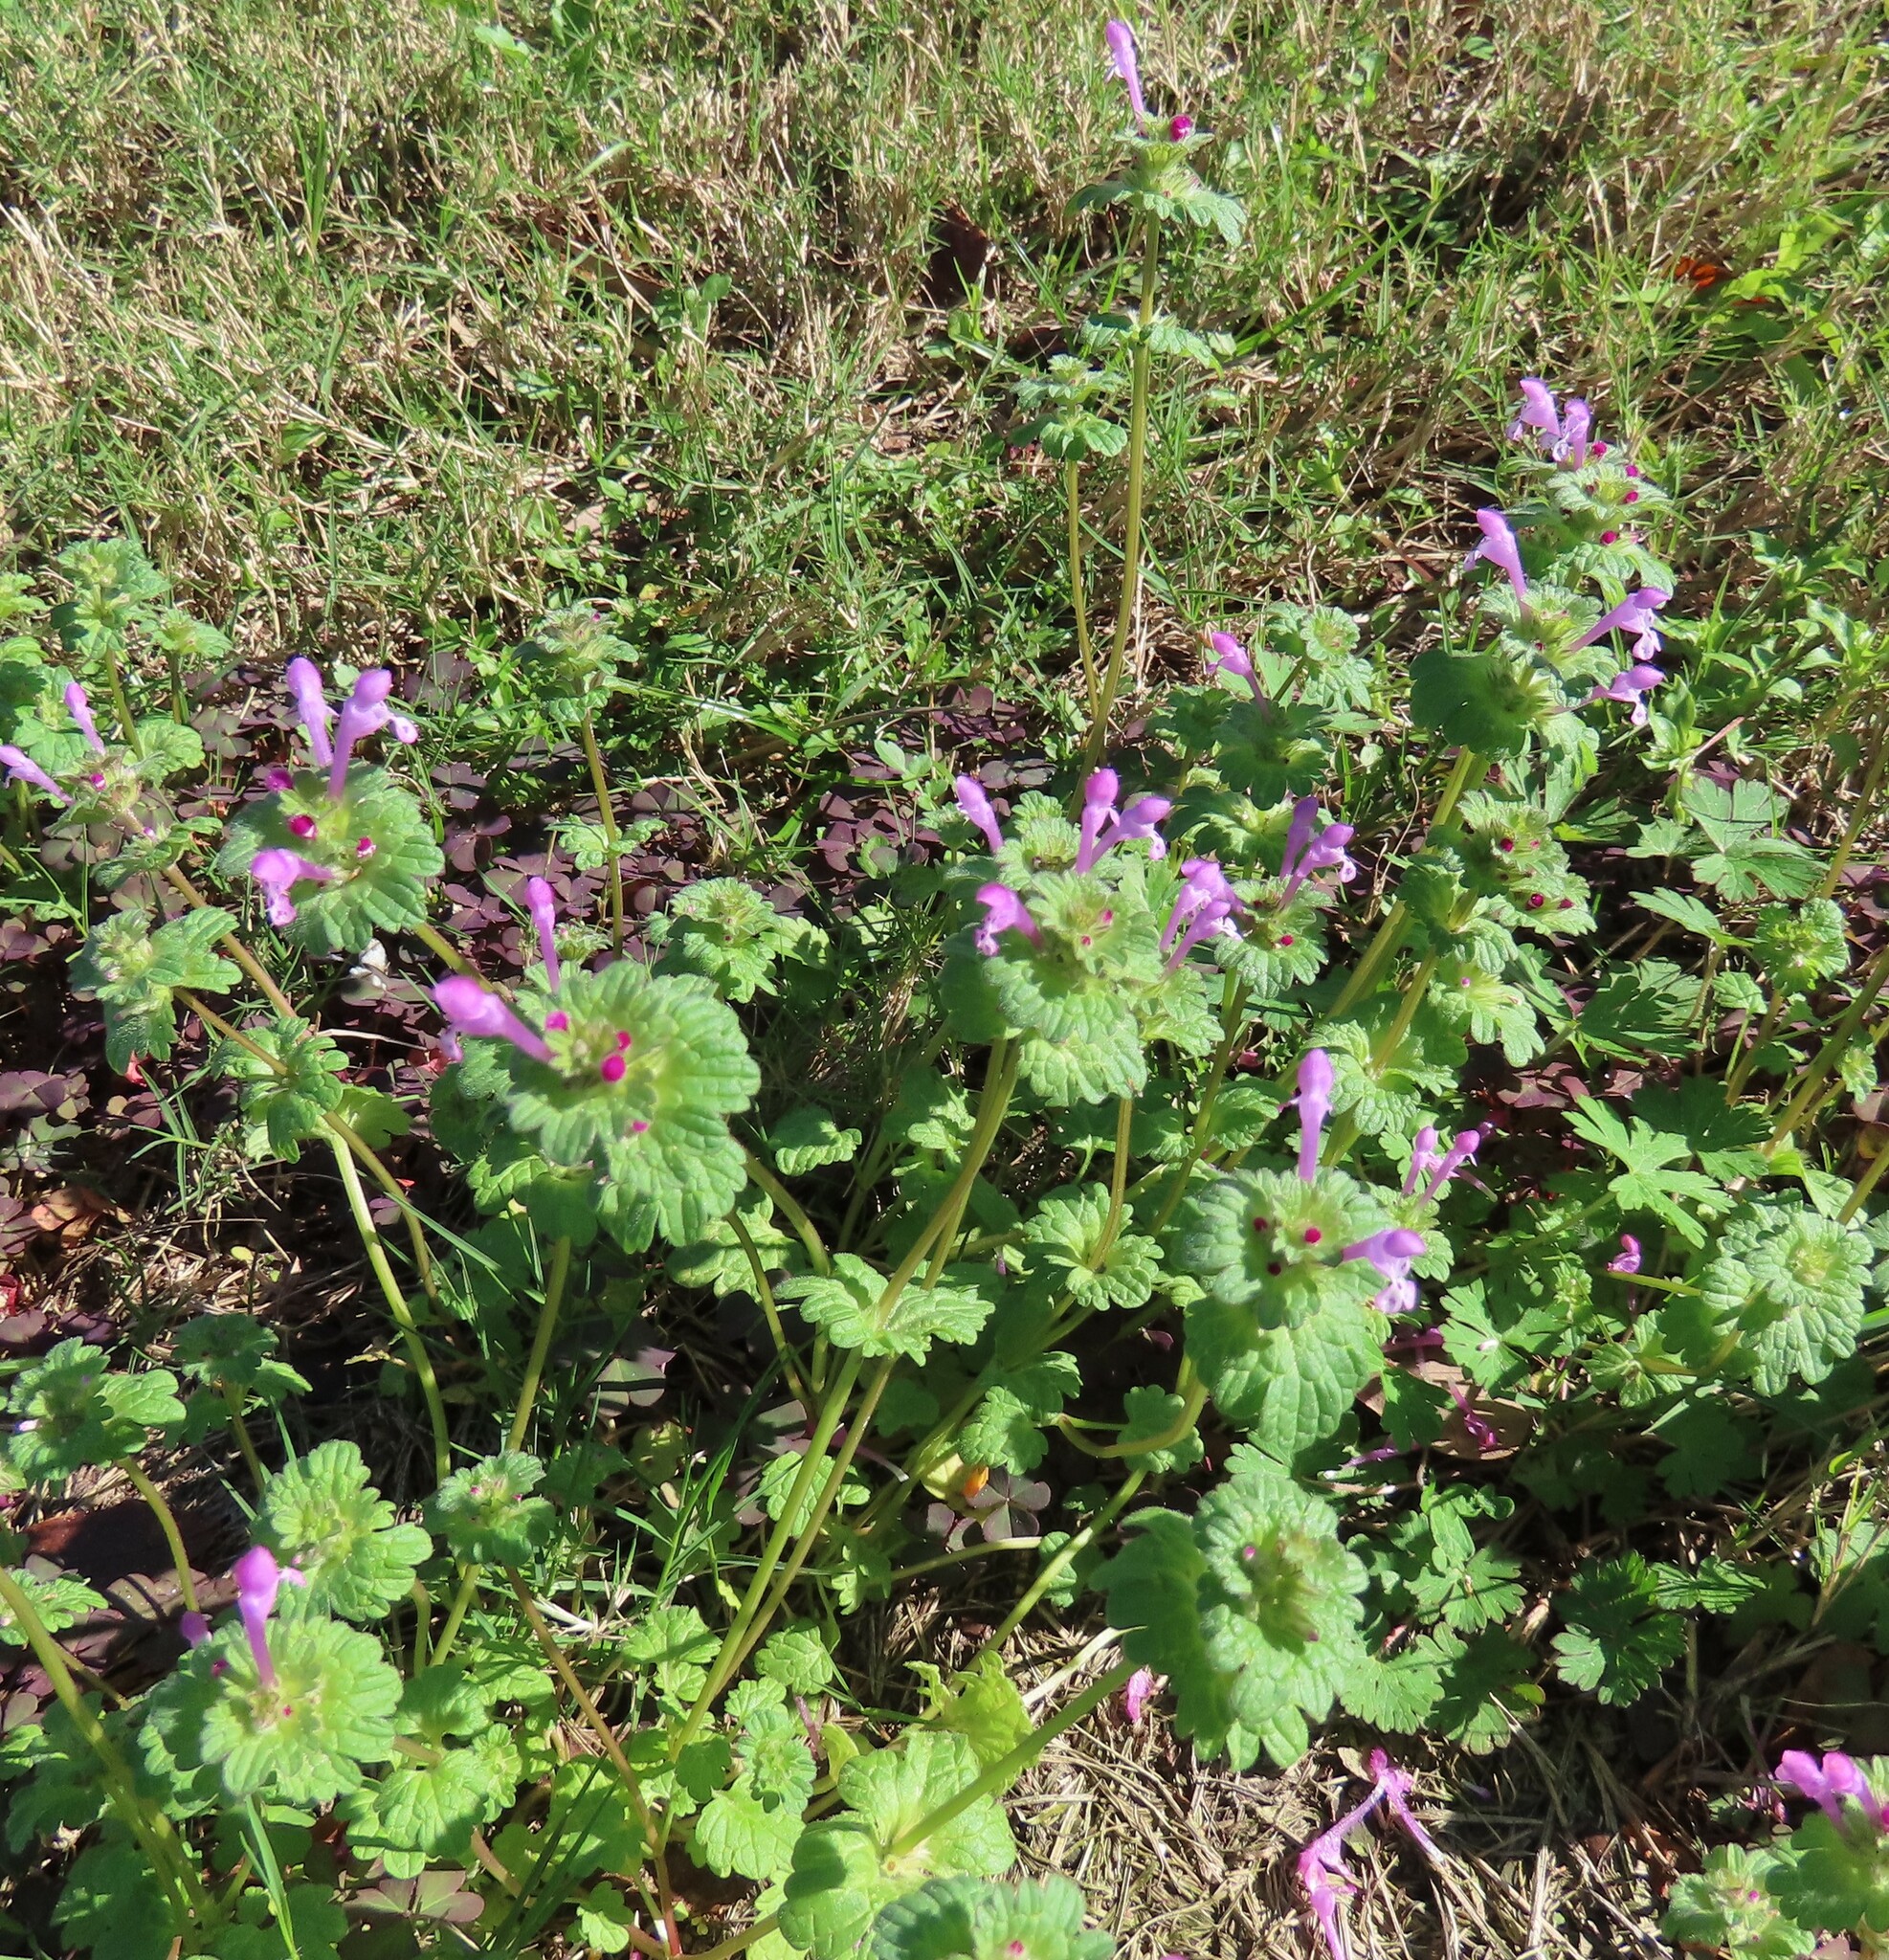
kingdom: Plantae
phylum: Tracheophyta
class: Magnoliopsida
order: Lamiales
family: Lamiaceae
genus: Lamium
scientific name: Lamium amplexicaule
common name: Henbit dead-nettle
